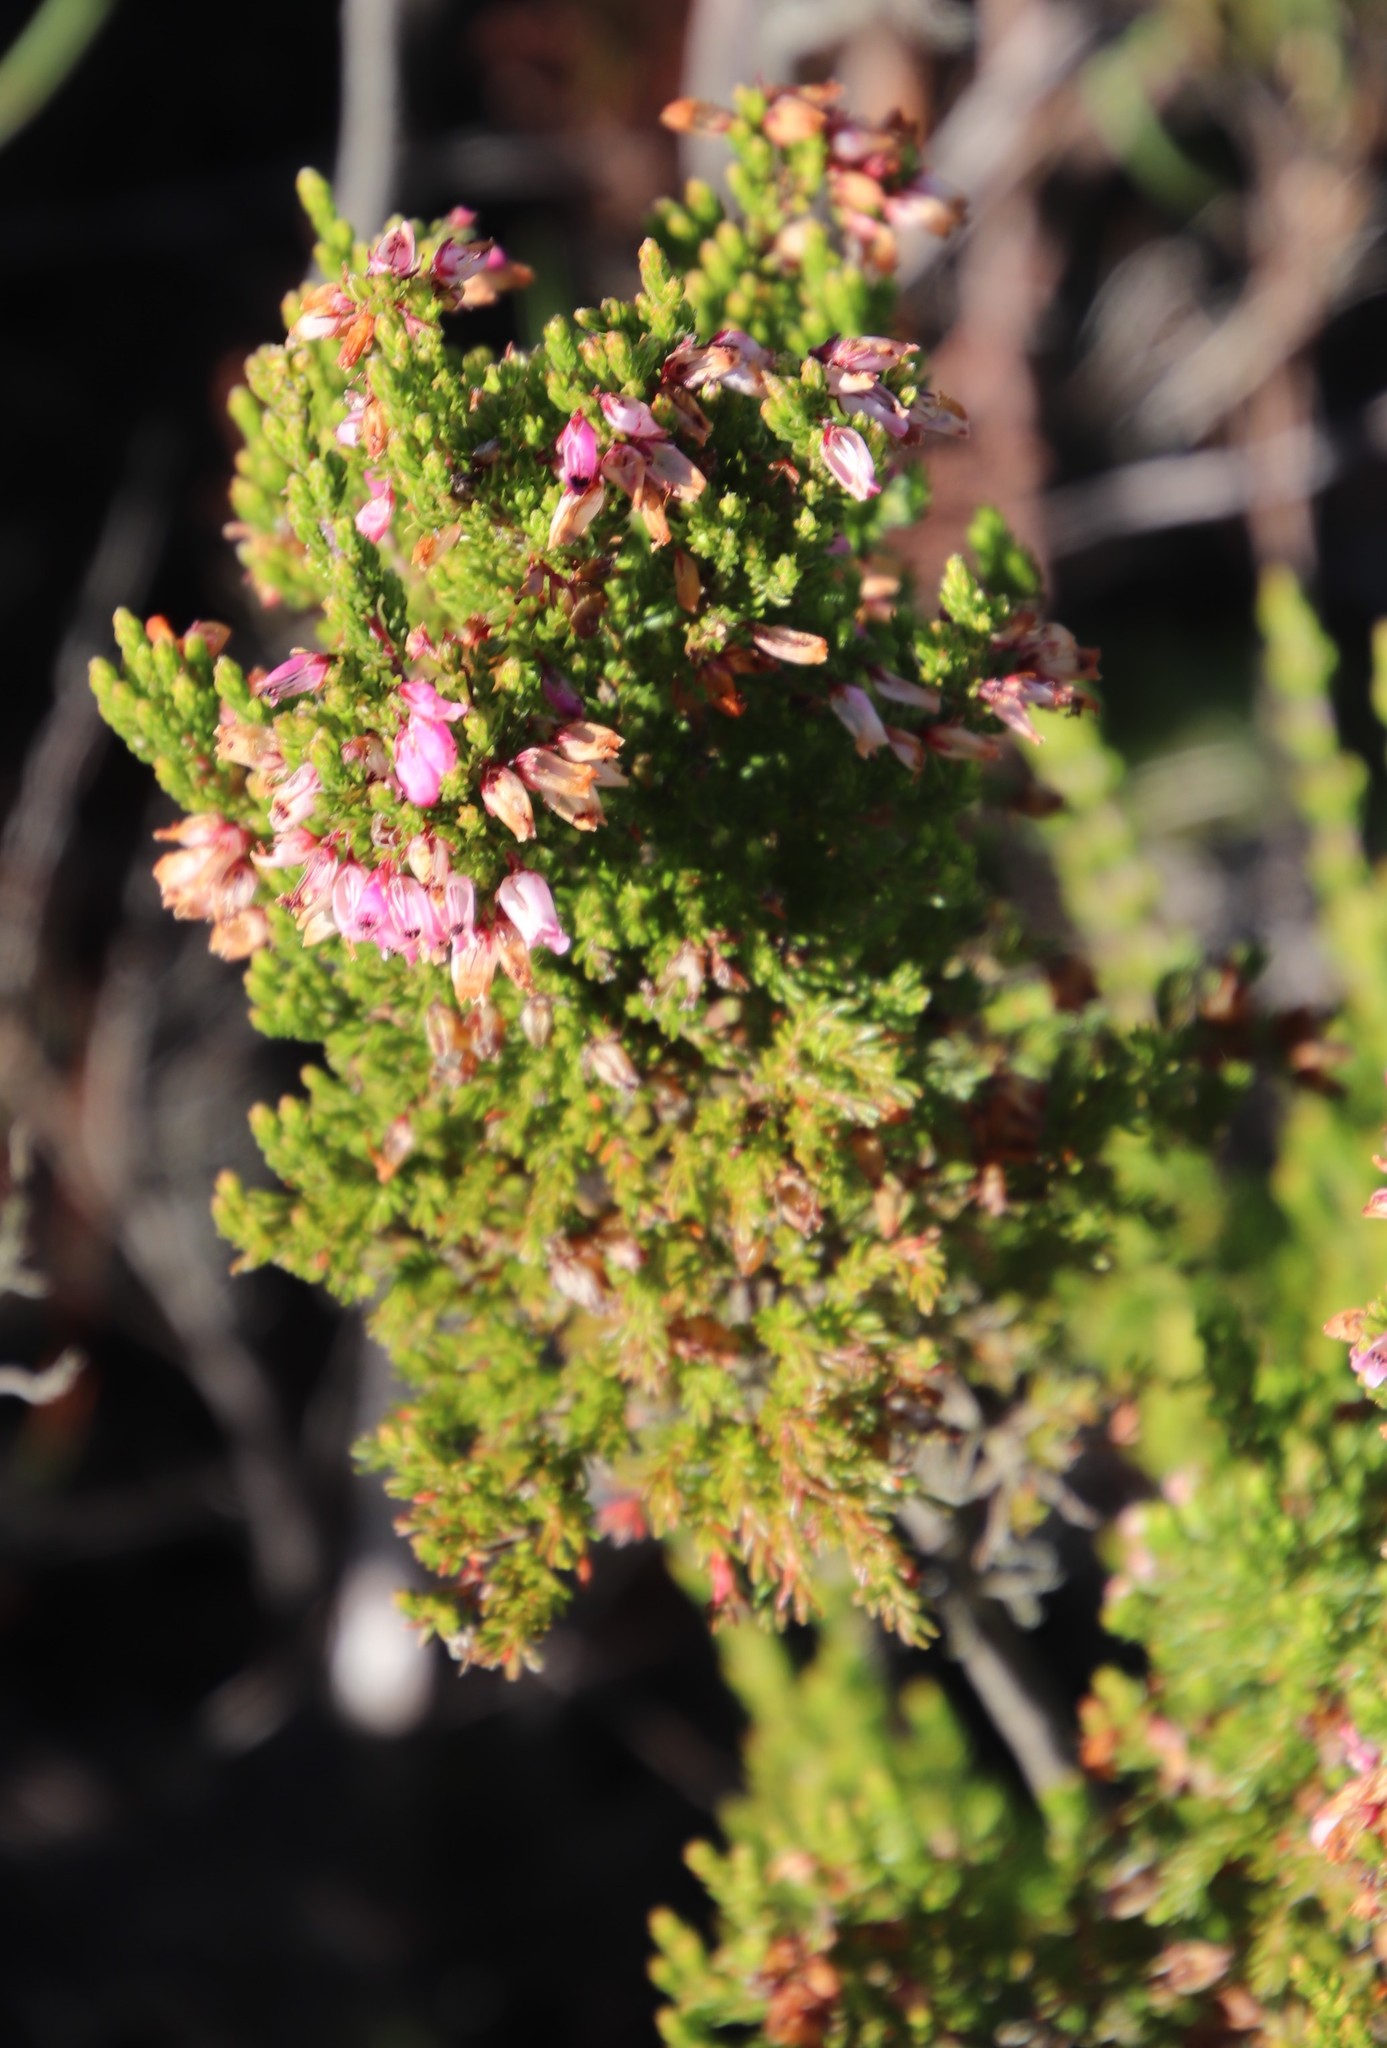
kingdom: Plantae
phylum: Tracheophyta
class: Magnoliopsida
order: Ericales
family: Ericaceae
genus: Erica
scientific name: Erica sitiens
